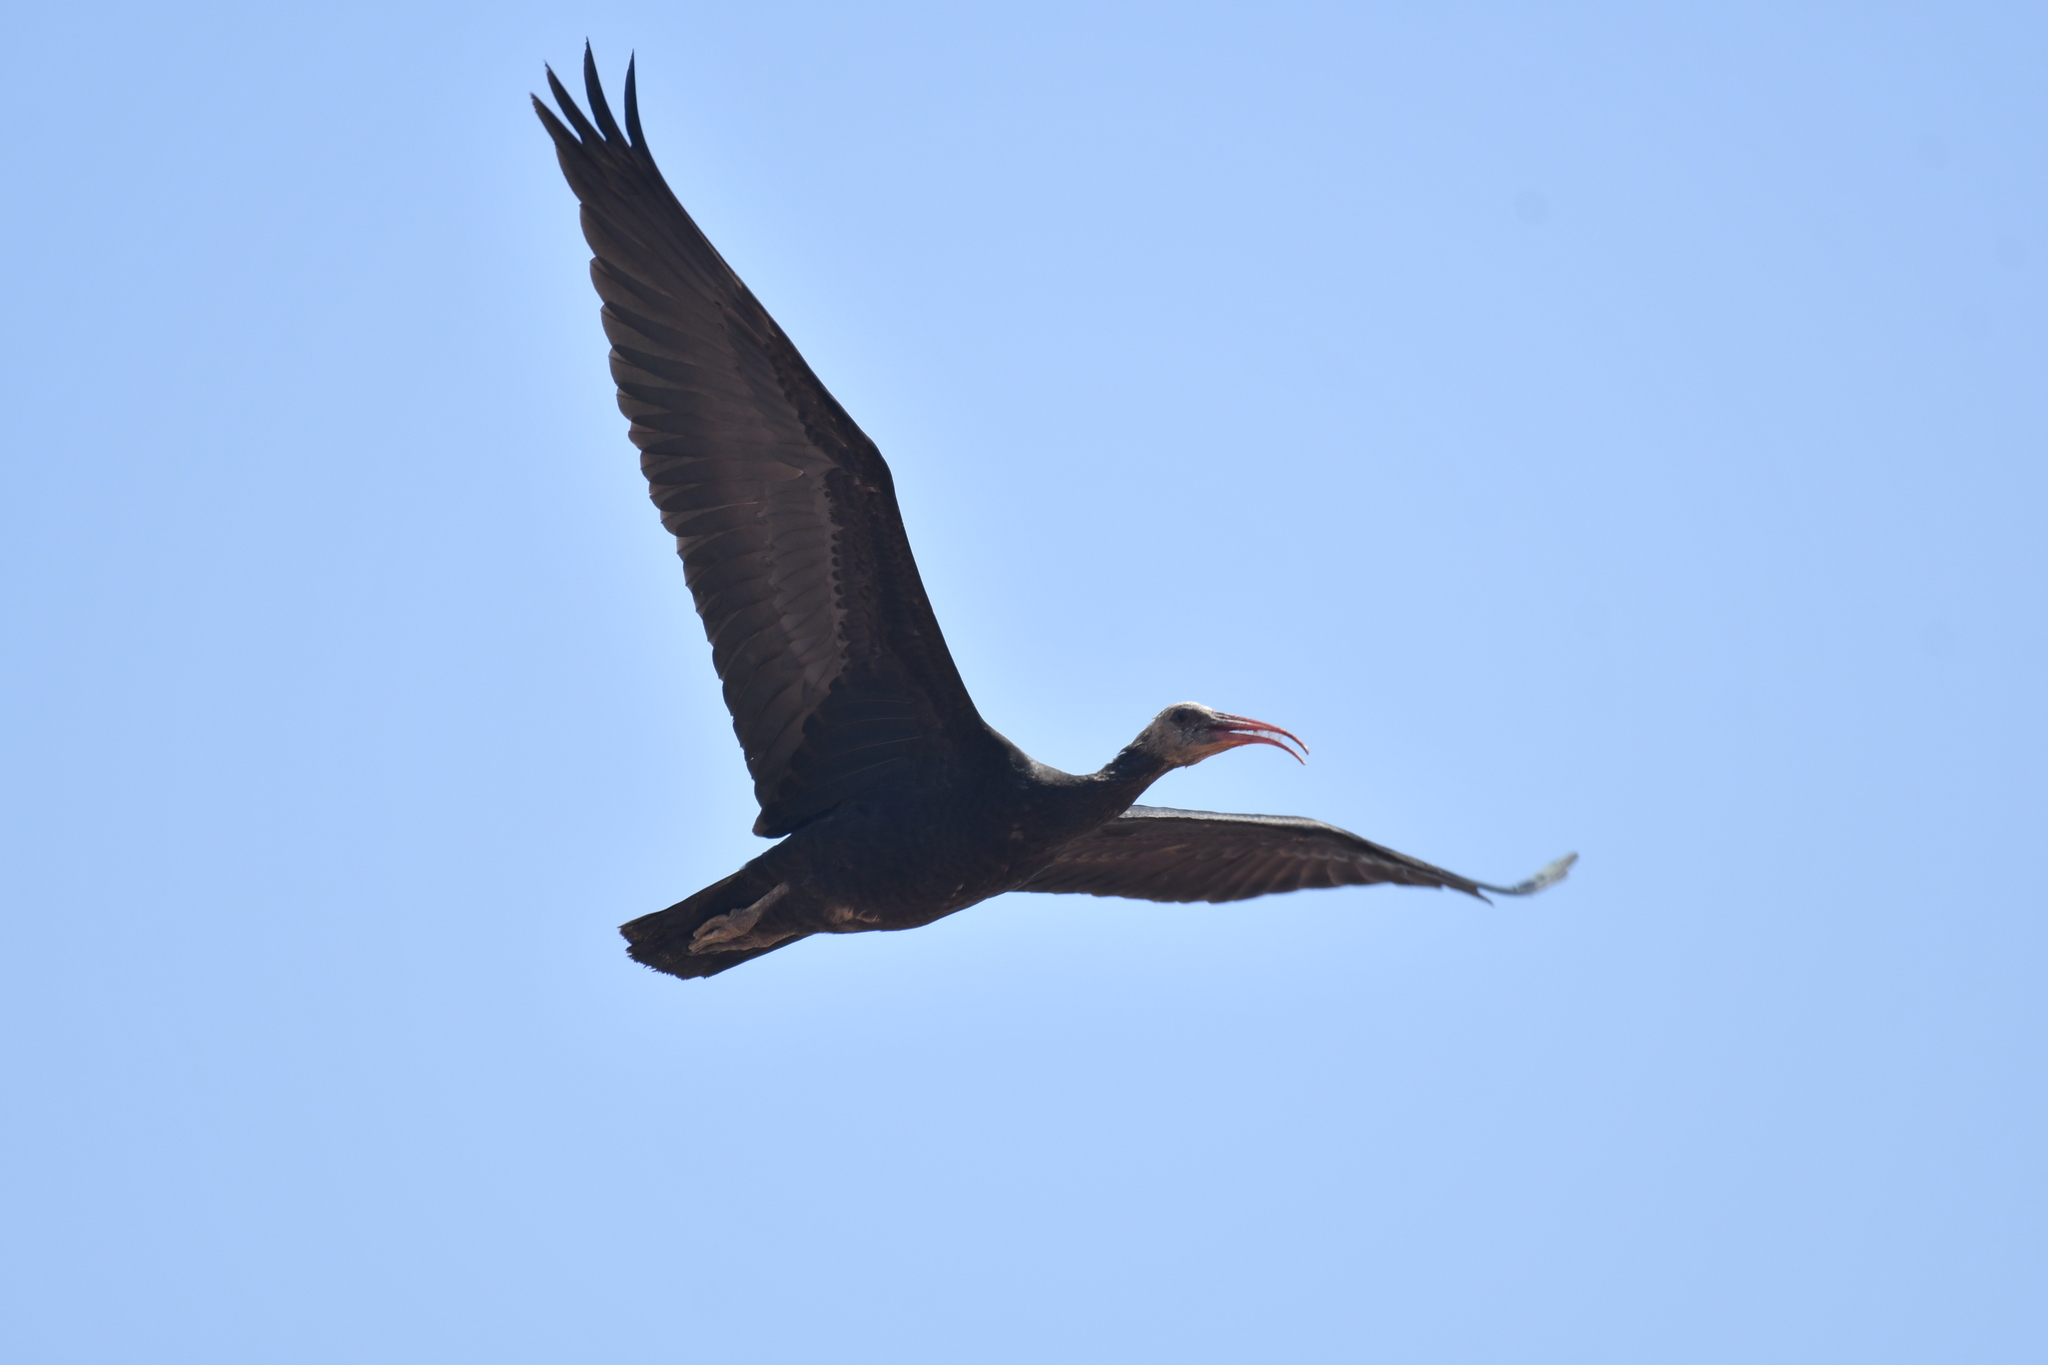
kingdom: Animalia
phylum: Chordata
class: Aves
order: Pelecaniformes
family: Threskiornithidae
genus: Geronticus
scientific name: Geronticus eremita
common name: Northern bald ibis
